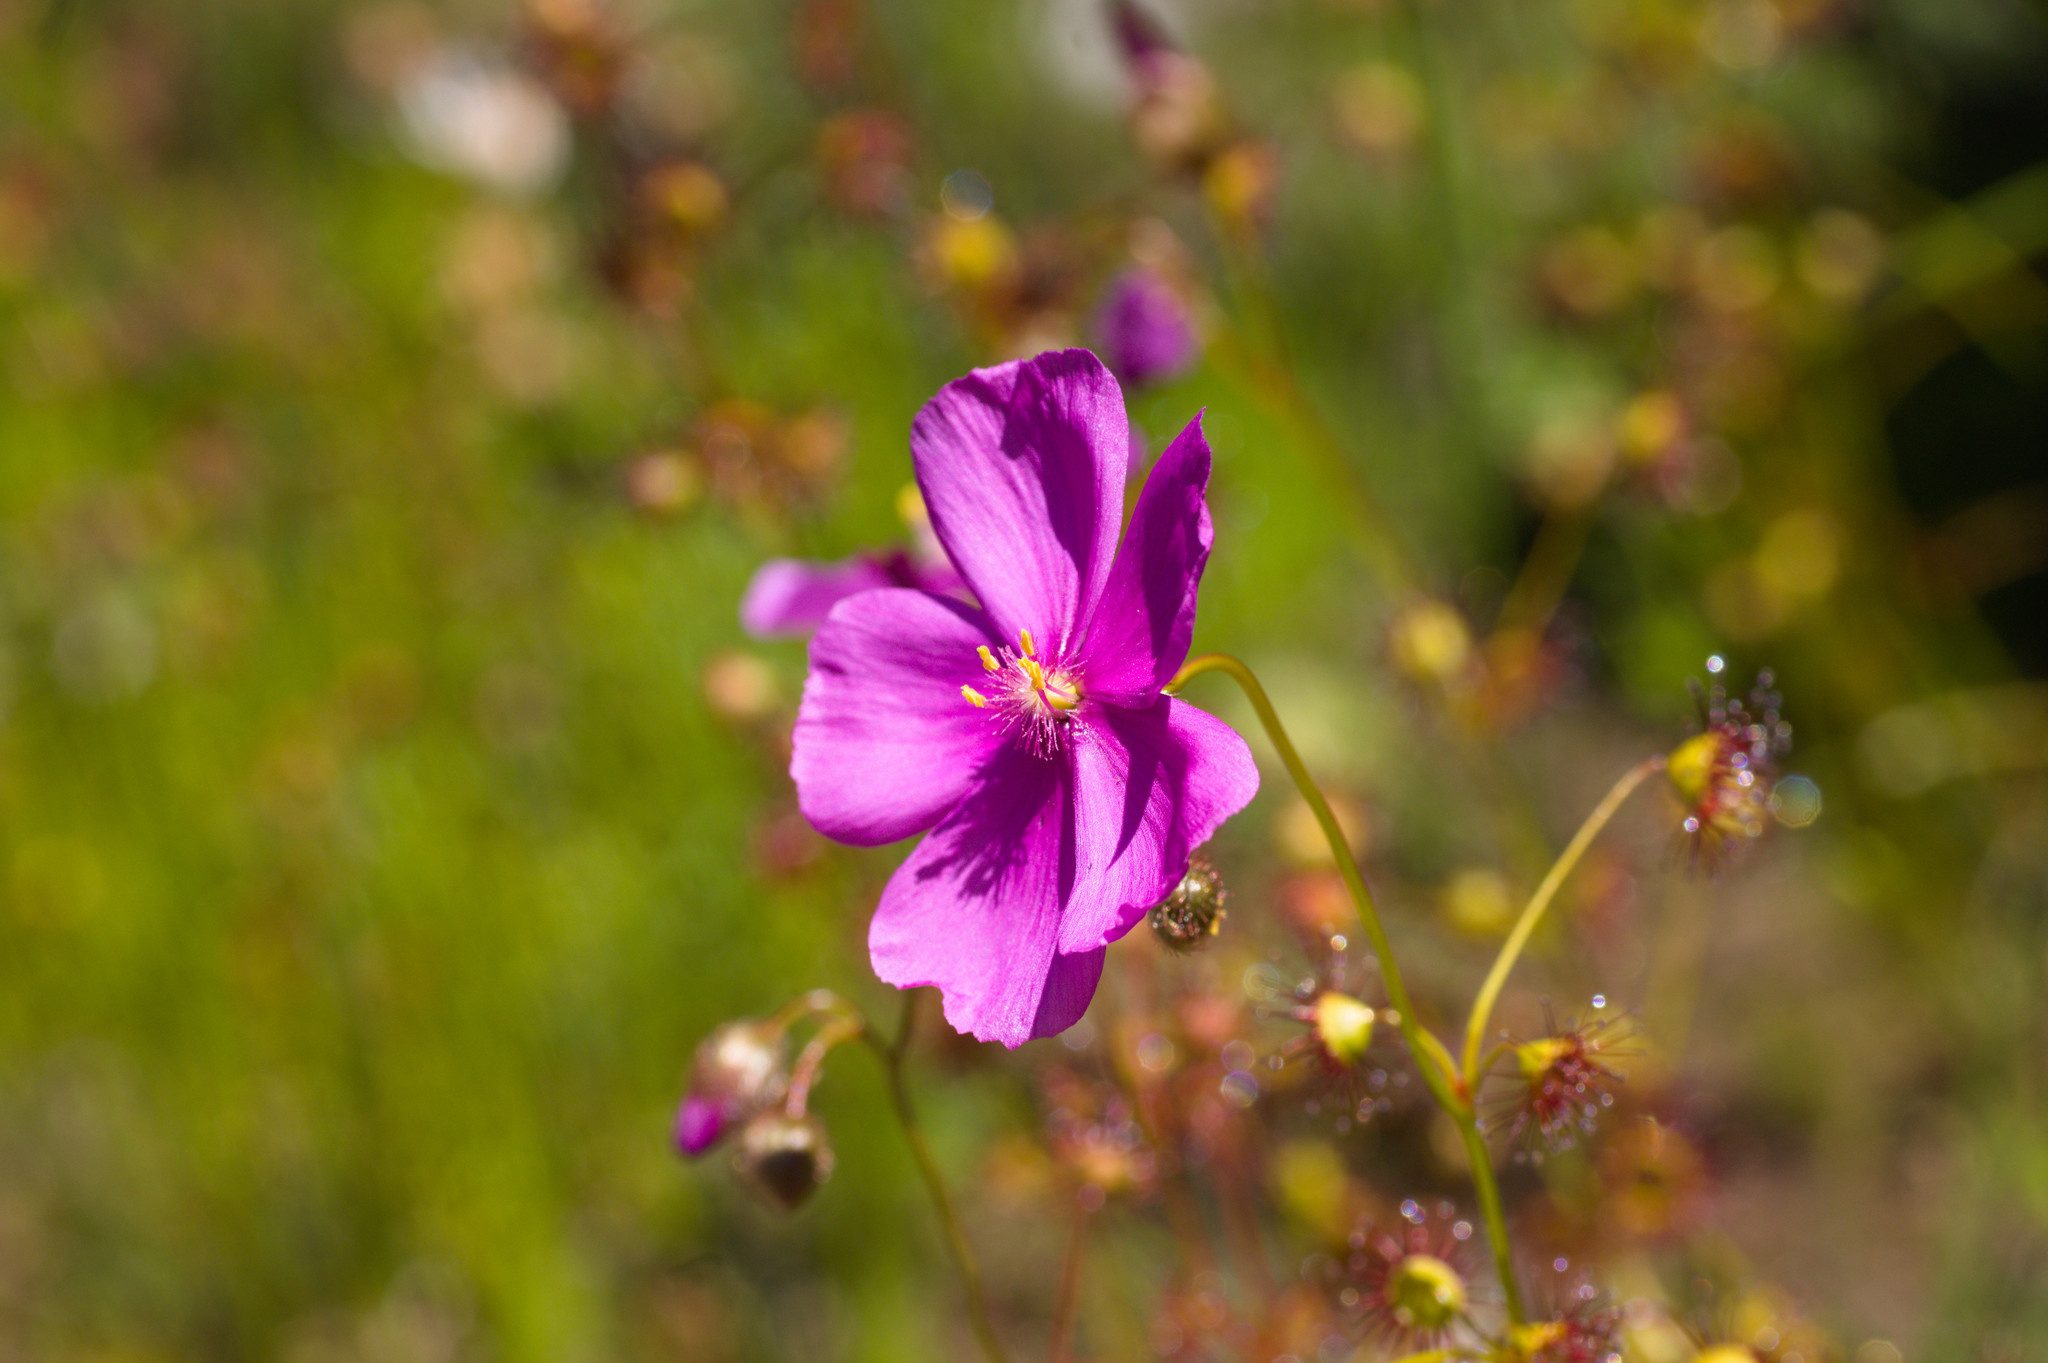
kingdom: Plantae
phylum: Tracheophyta
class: Magnoliopsida
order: Caryophyllales
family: Droseraceae
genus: Drosera
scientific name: Drosera menziesii
